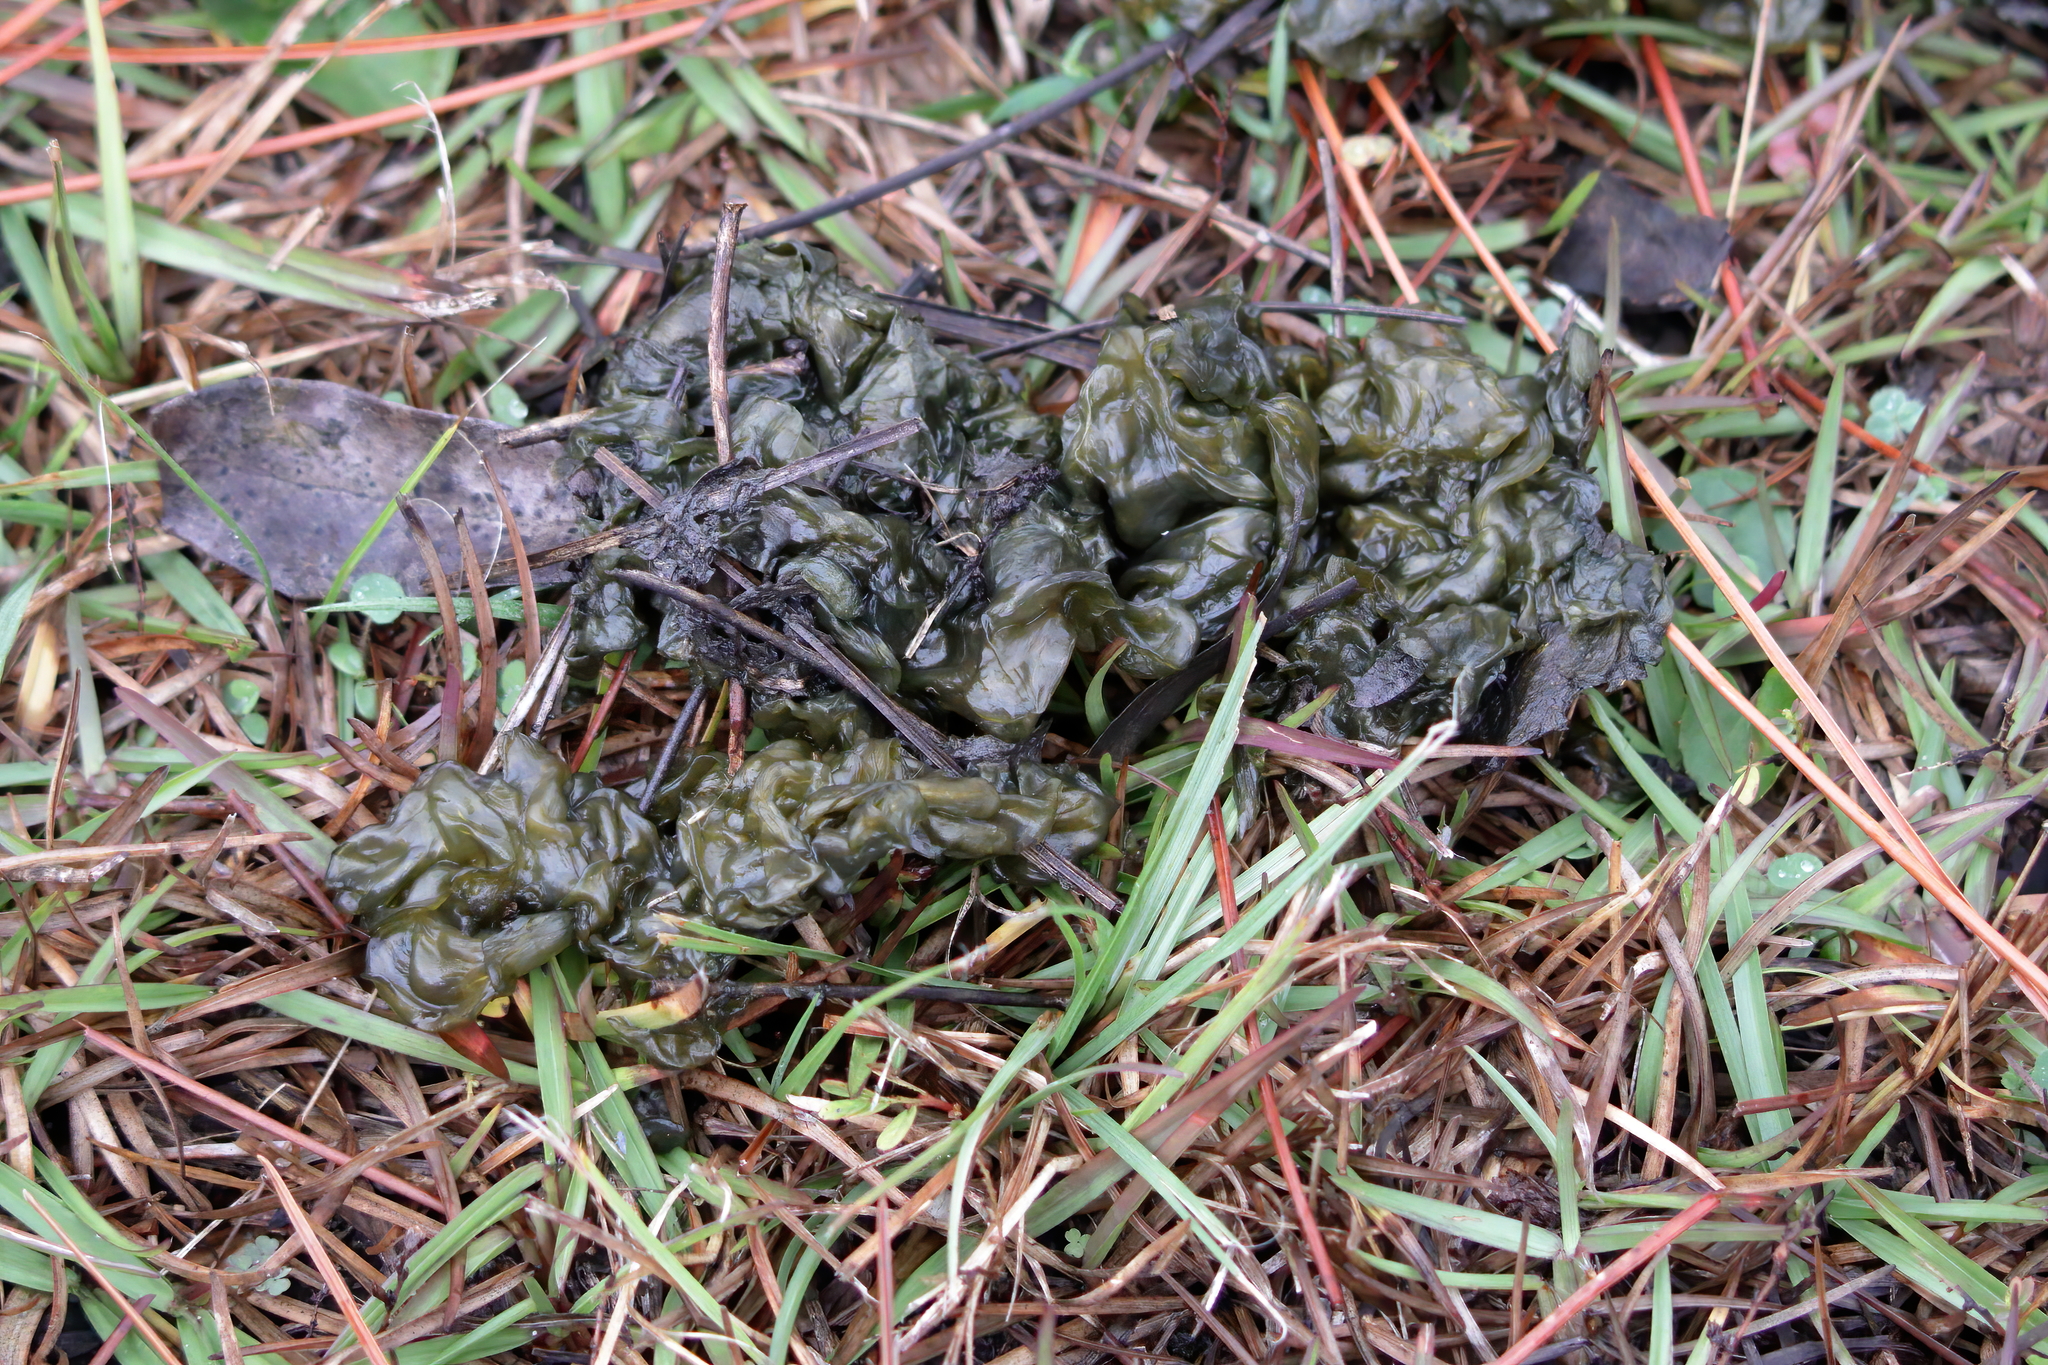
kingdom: Bacteria
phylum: Cyanobacteria
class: Cyanobacteriia
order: Cyanobacteriales
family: Nostocaceae
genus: Nostoc
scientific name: Nostoc commune
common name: Star jelly
